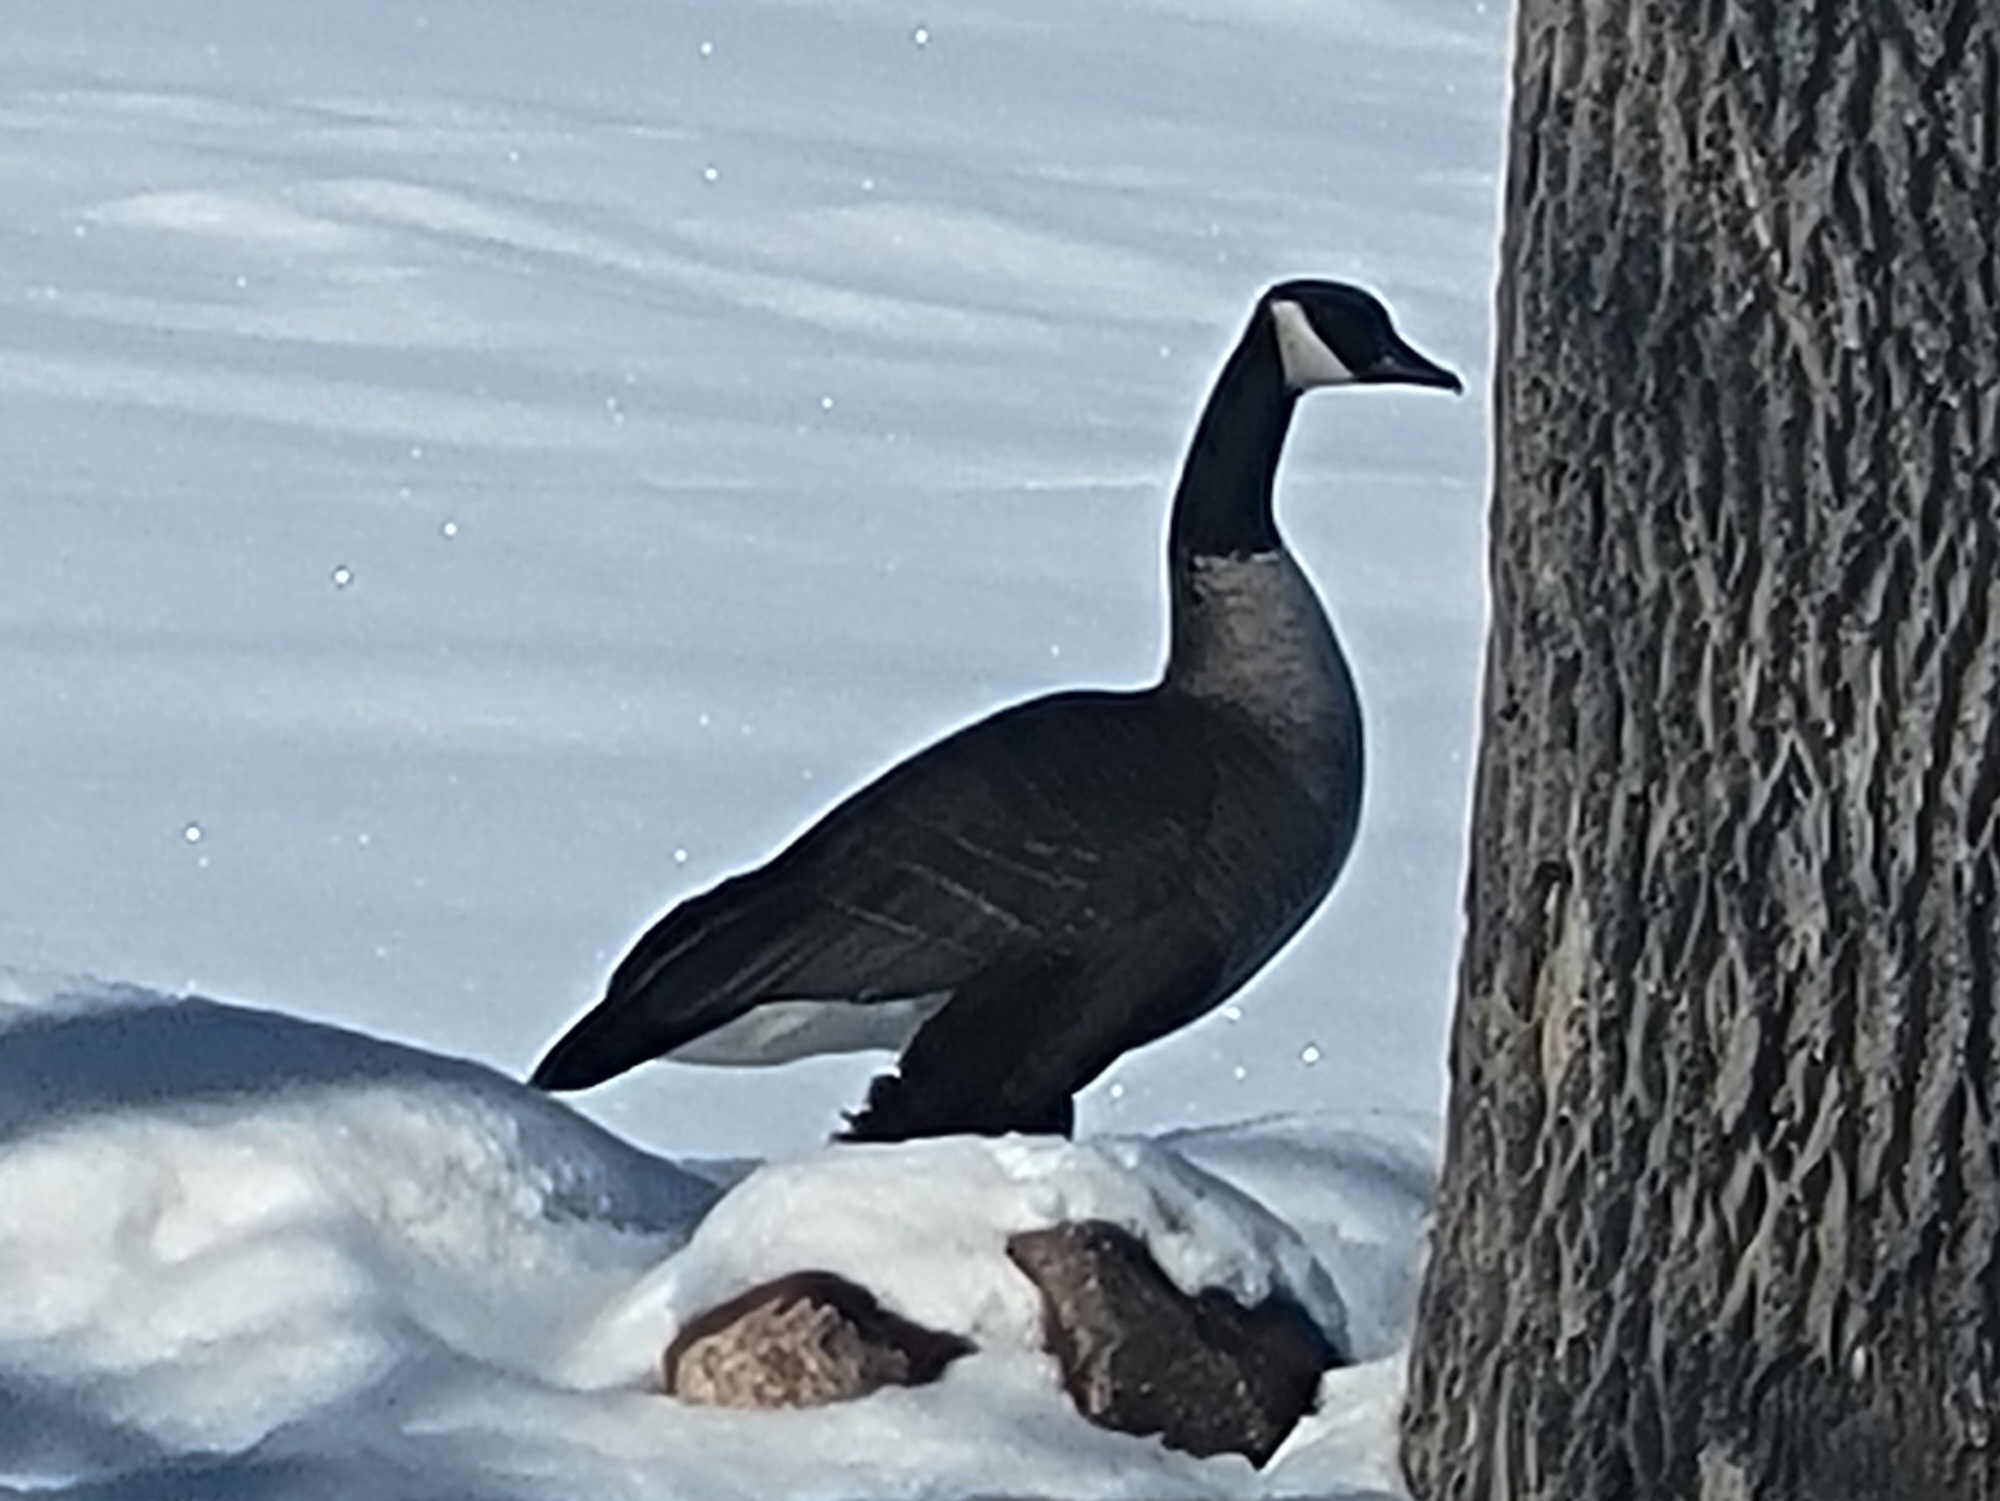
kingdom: Animalia
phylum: Chordata
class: Aves
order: Anseriformes
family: Anatidae
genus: Branta
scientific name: Branta canadensis
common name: Canada goose
